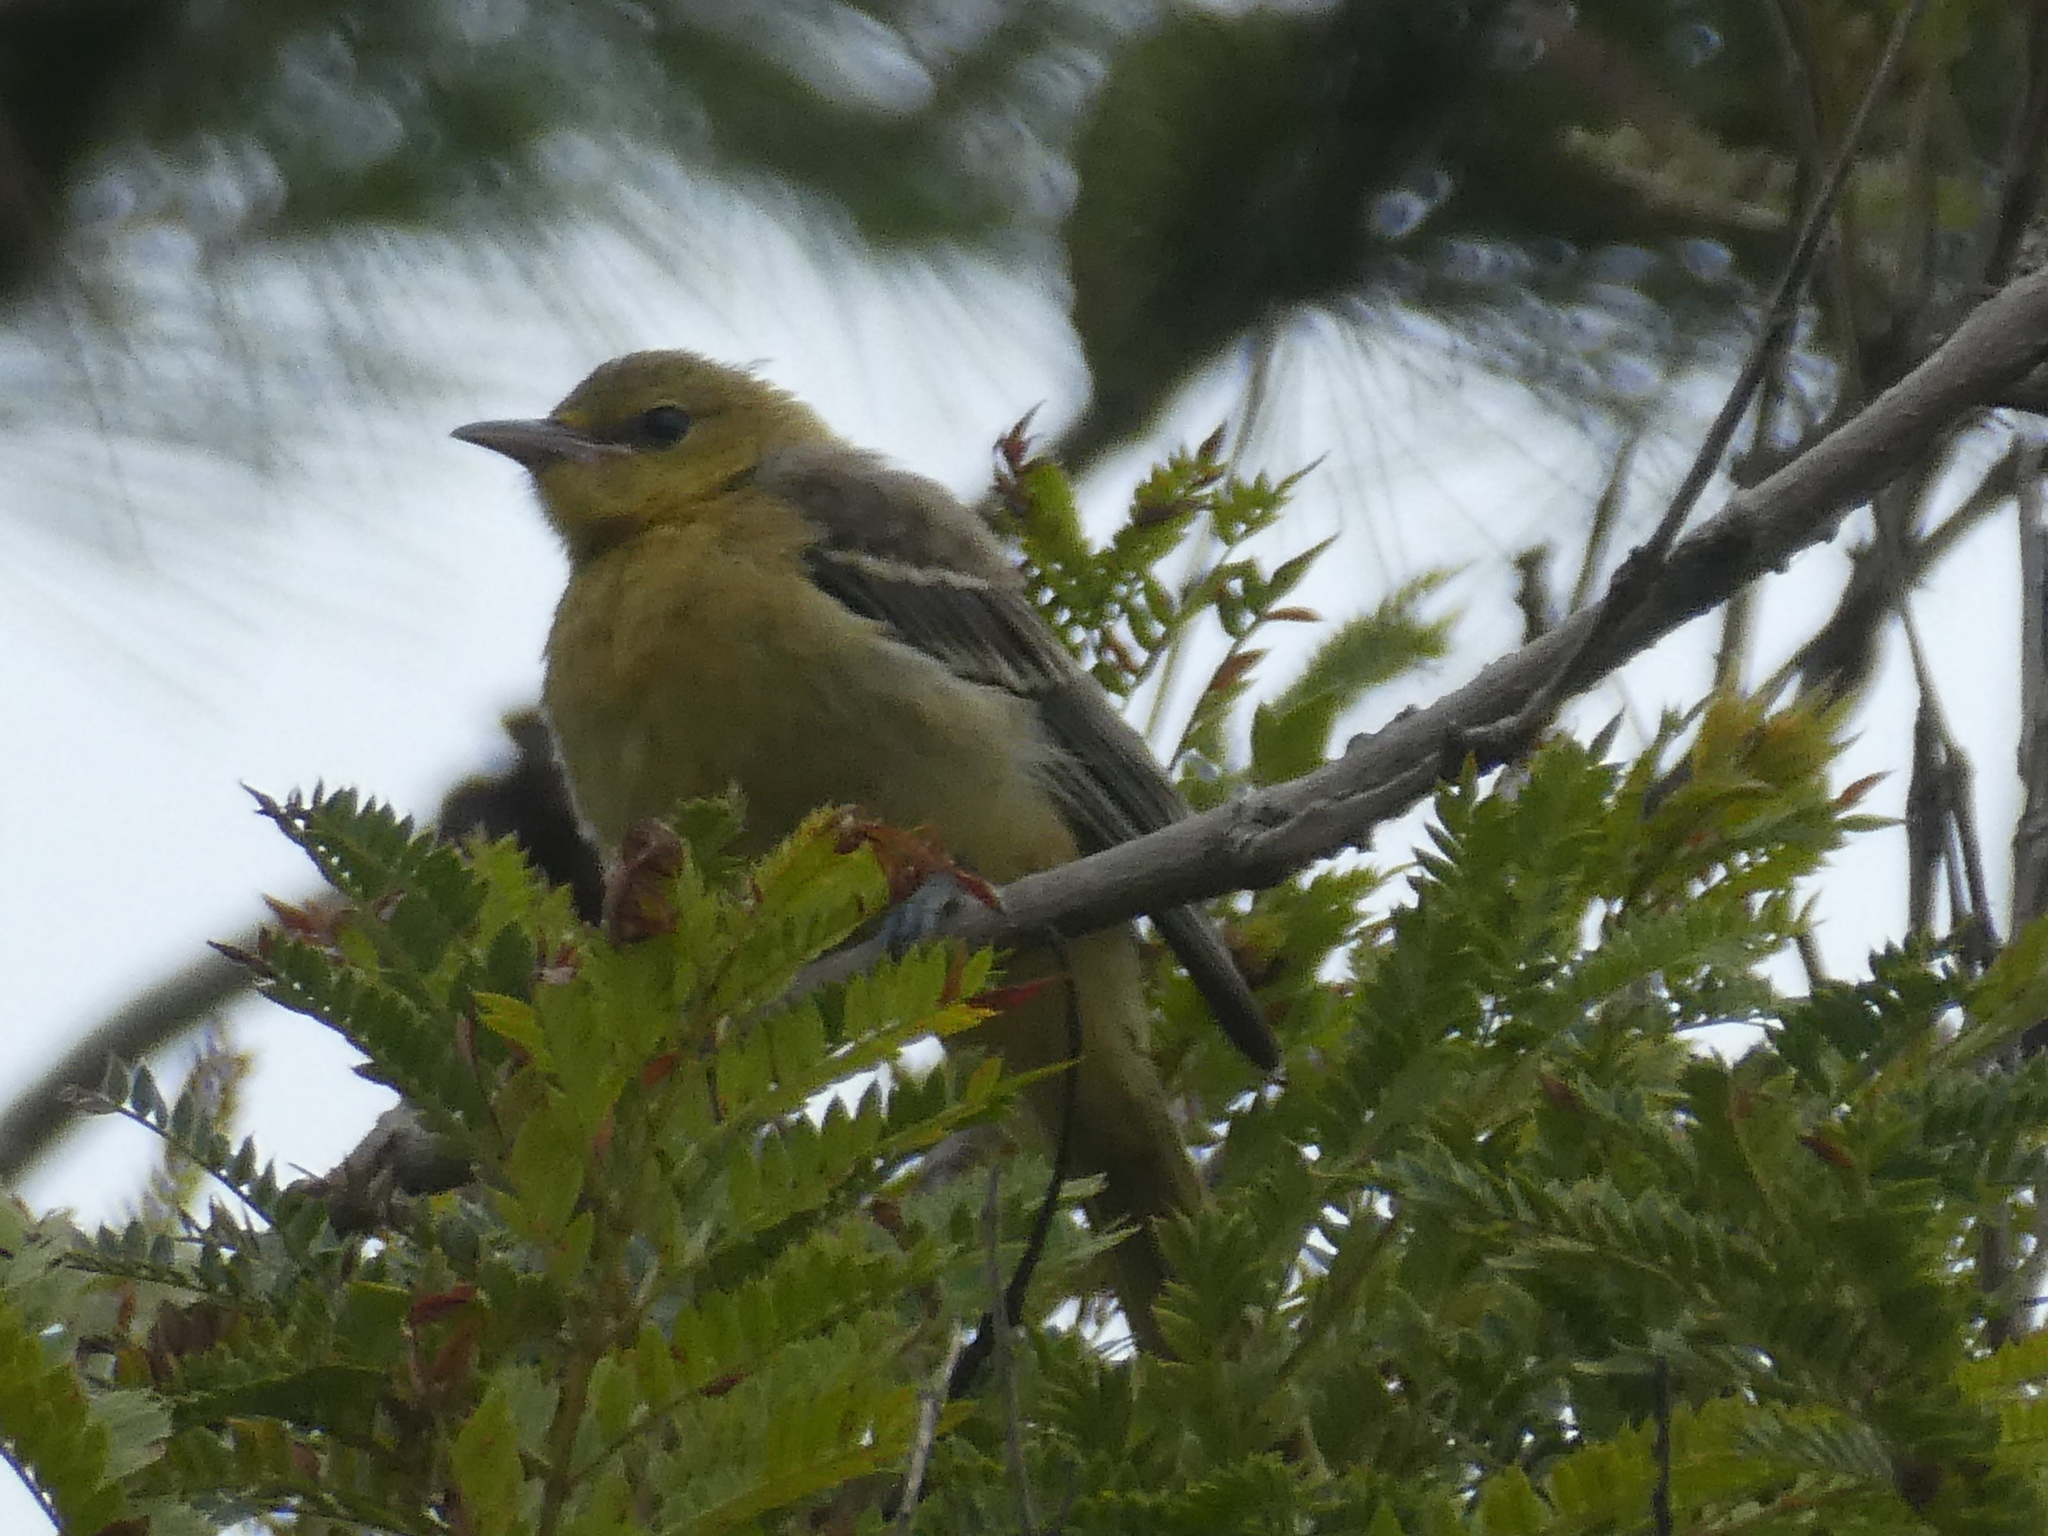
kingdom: Animalia
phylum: Chordata
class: Aves
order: Passeriformes
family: Icteridae
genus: Icterus
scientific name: Icterus bullockii
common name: Bullock's oriole
